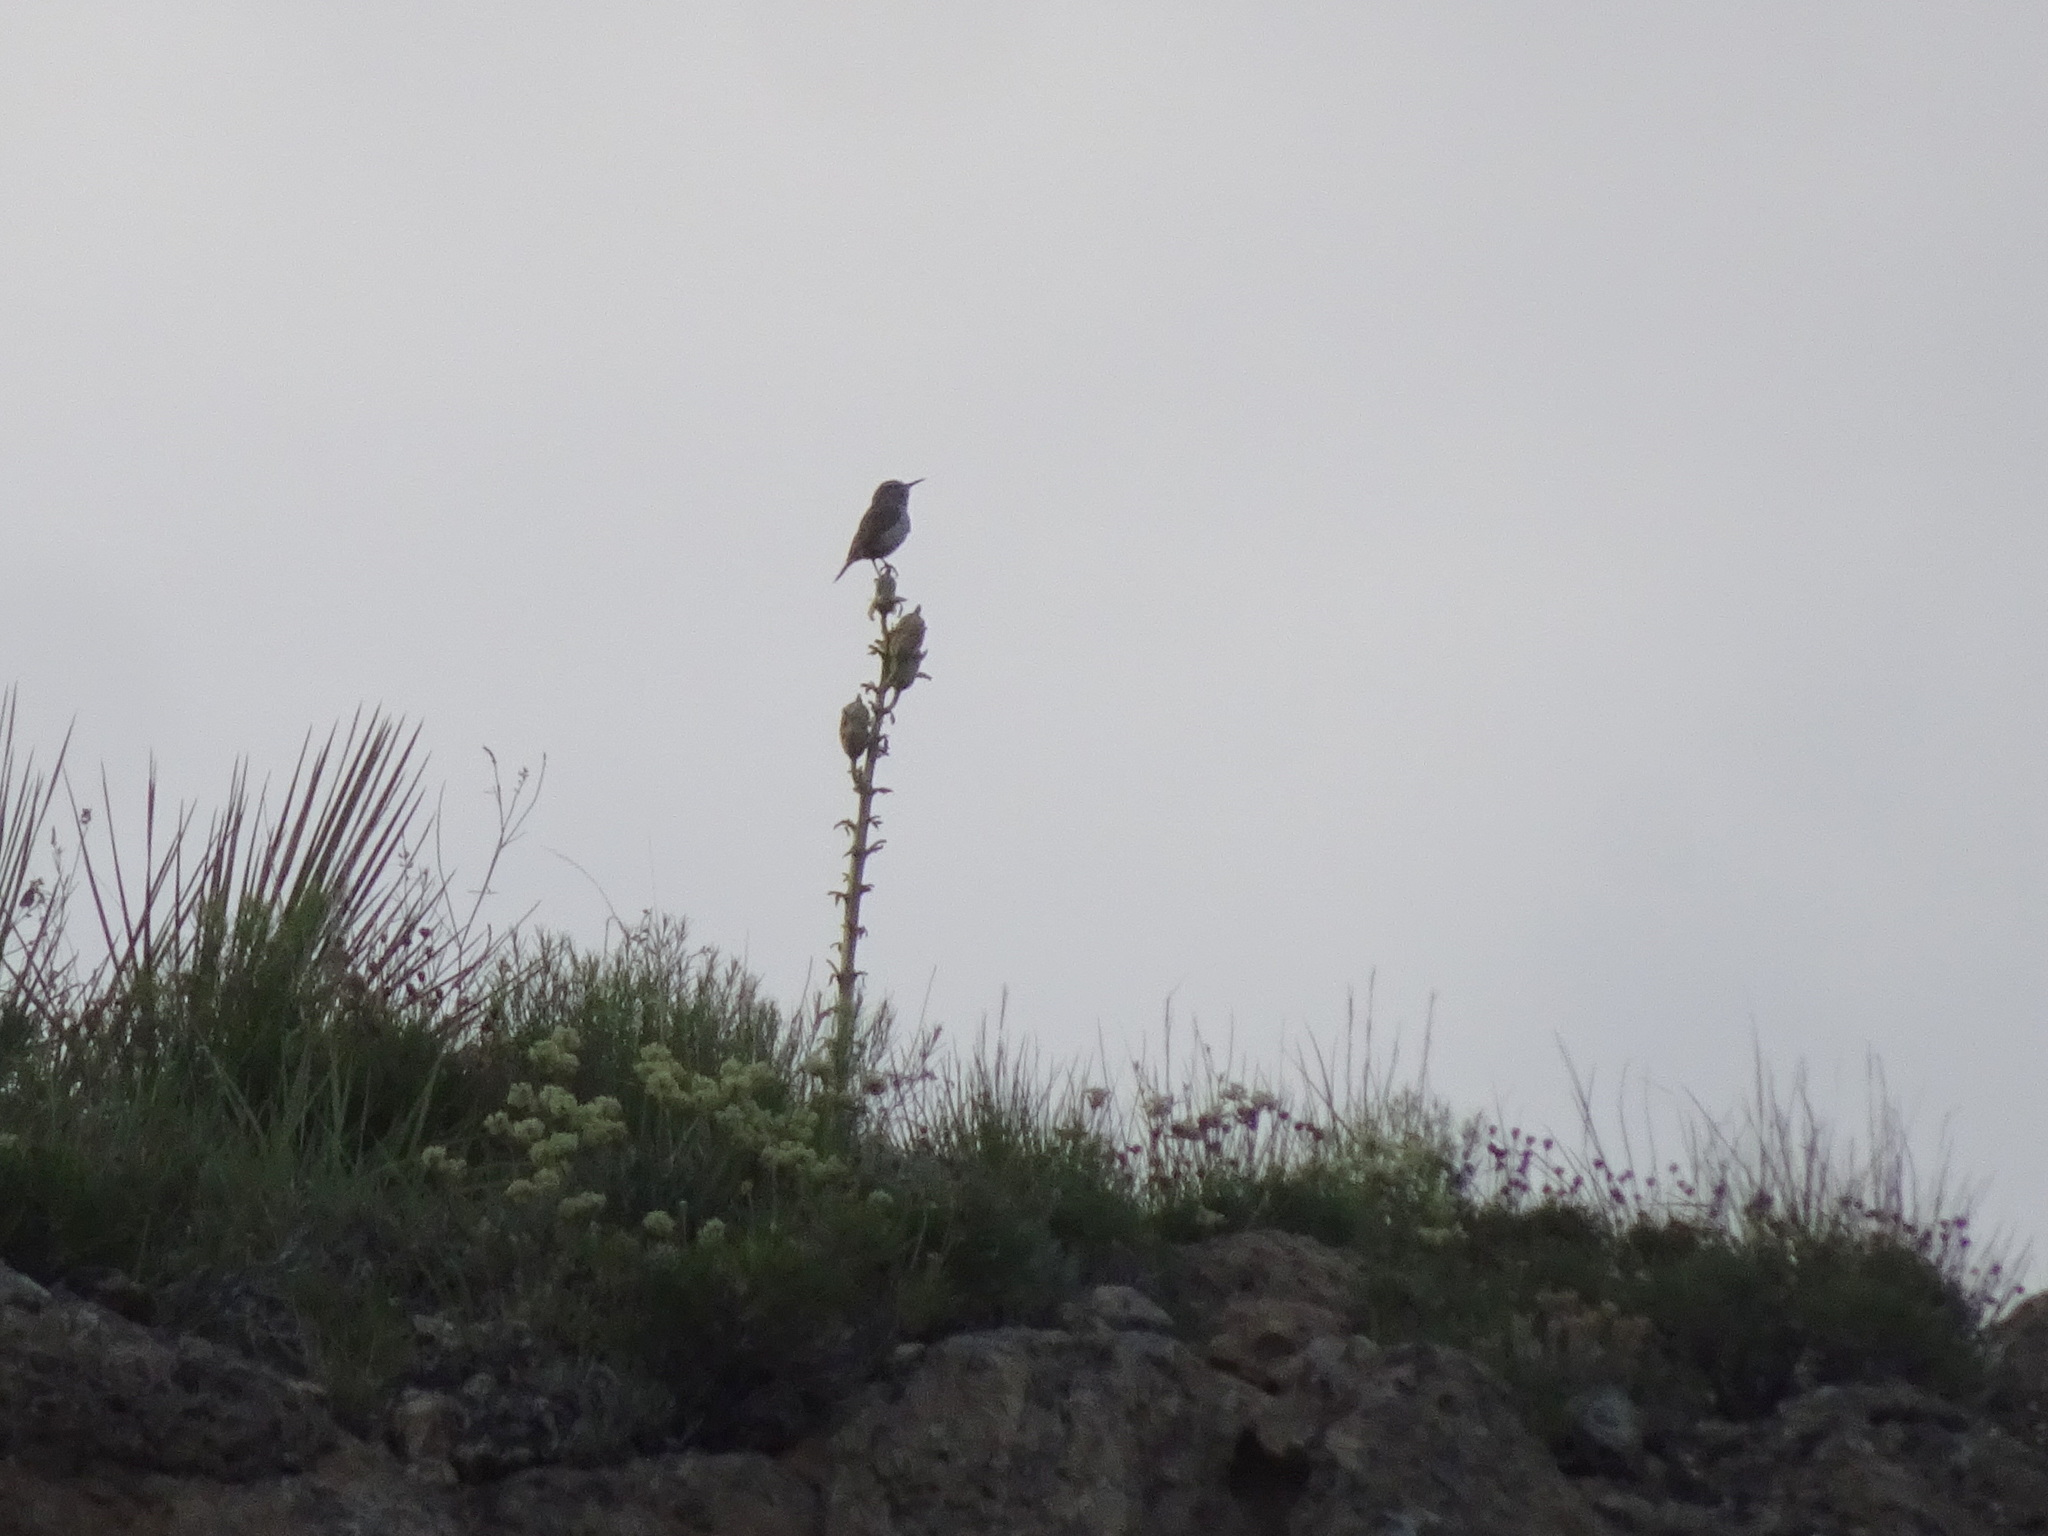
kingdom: Animalia
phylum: Chordata
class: Aves
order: Passeriformes
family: Troglodytidae
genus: Salpinctes
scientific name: Salpinctes obsoletus
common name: Rock wren
